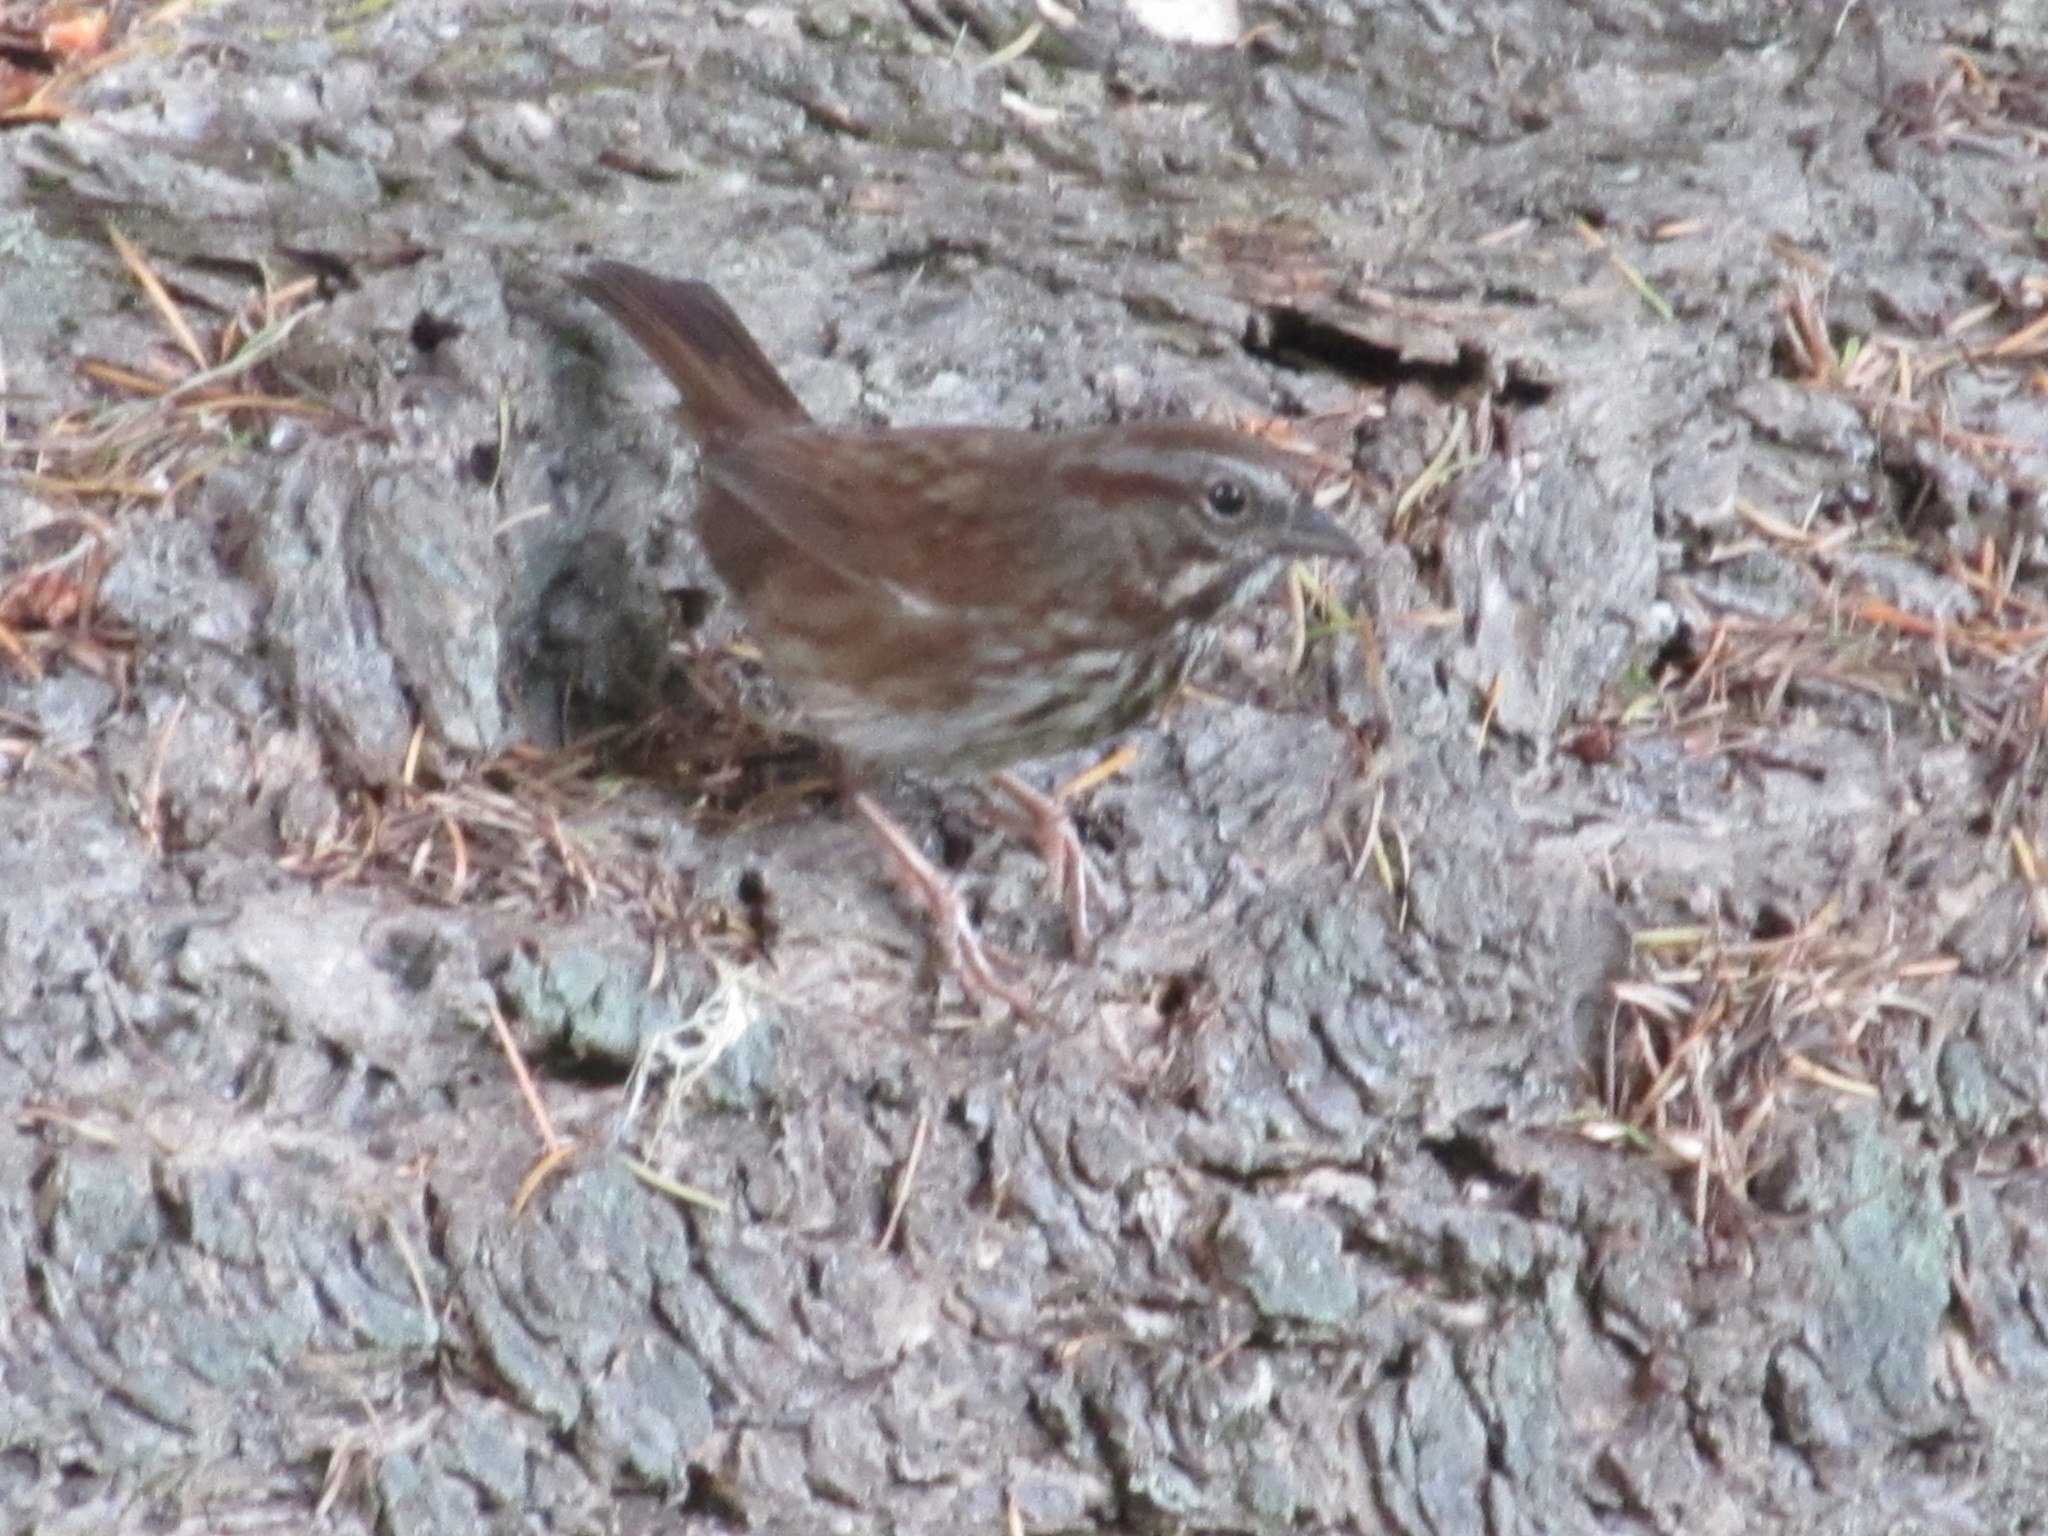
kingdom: Animalia
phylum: Chordata
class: Aves
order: Passeriformes
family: Passerellidae
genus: Melospiza
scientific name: Melospiza melodia
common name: Song sparrow
